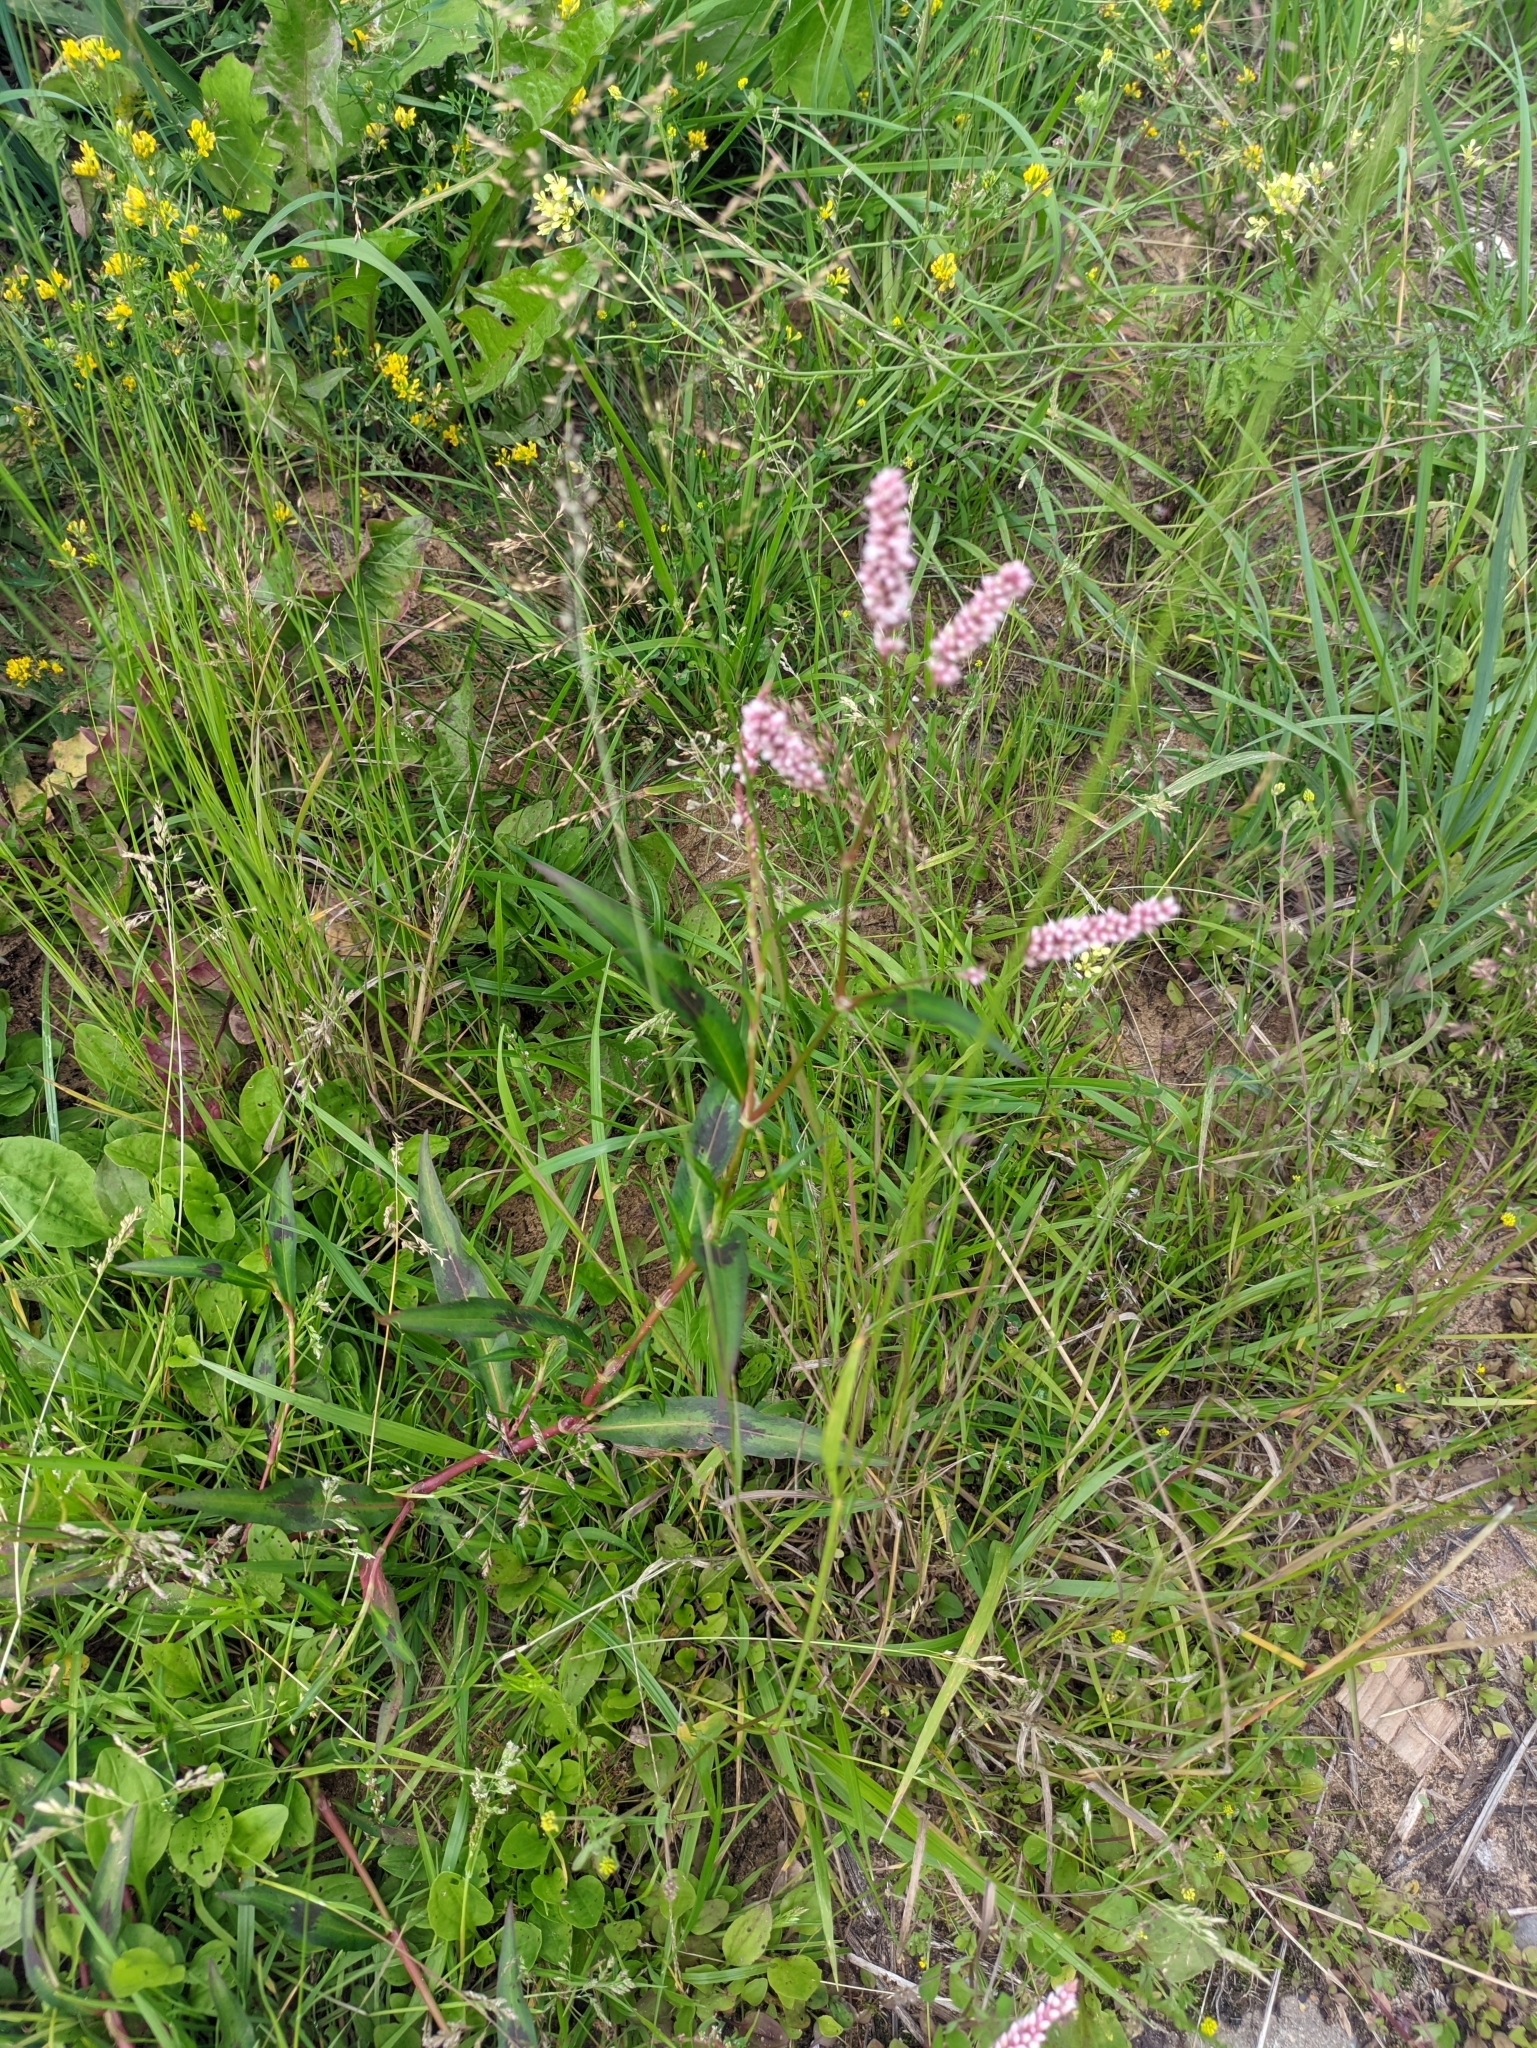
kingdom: Plantae
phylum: Tracheophyta
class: Magnoliopsida
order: Caryophyllales
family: Polygonaceae
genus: Persicaria
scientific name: Persicaria maculosa
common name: Redshank
